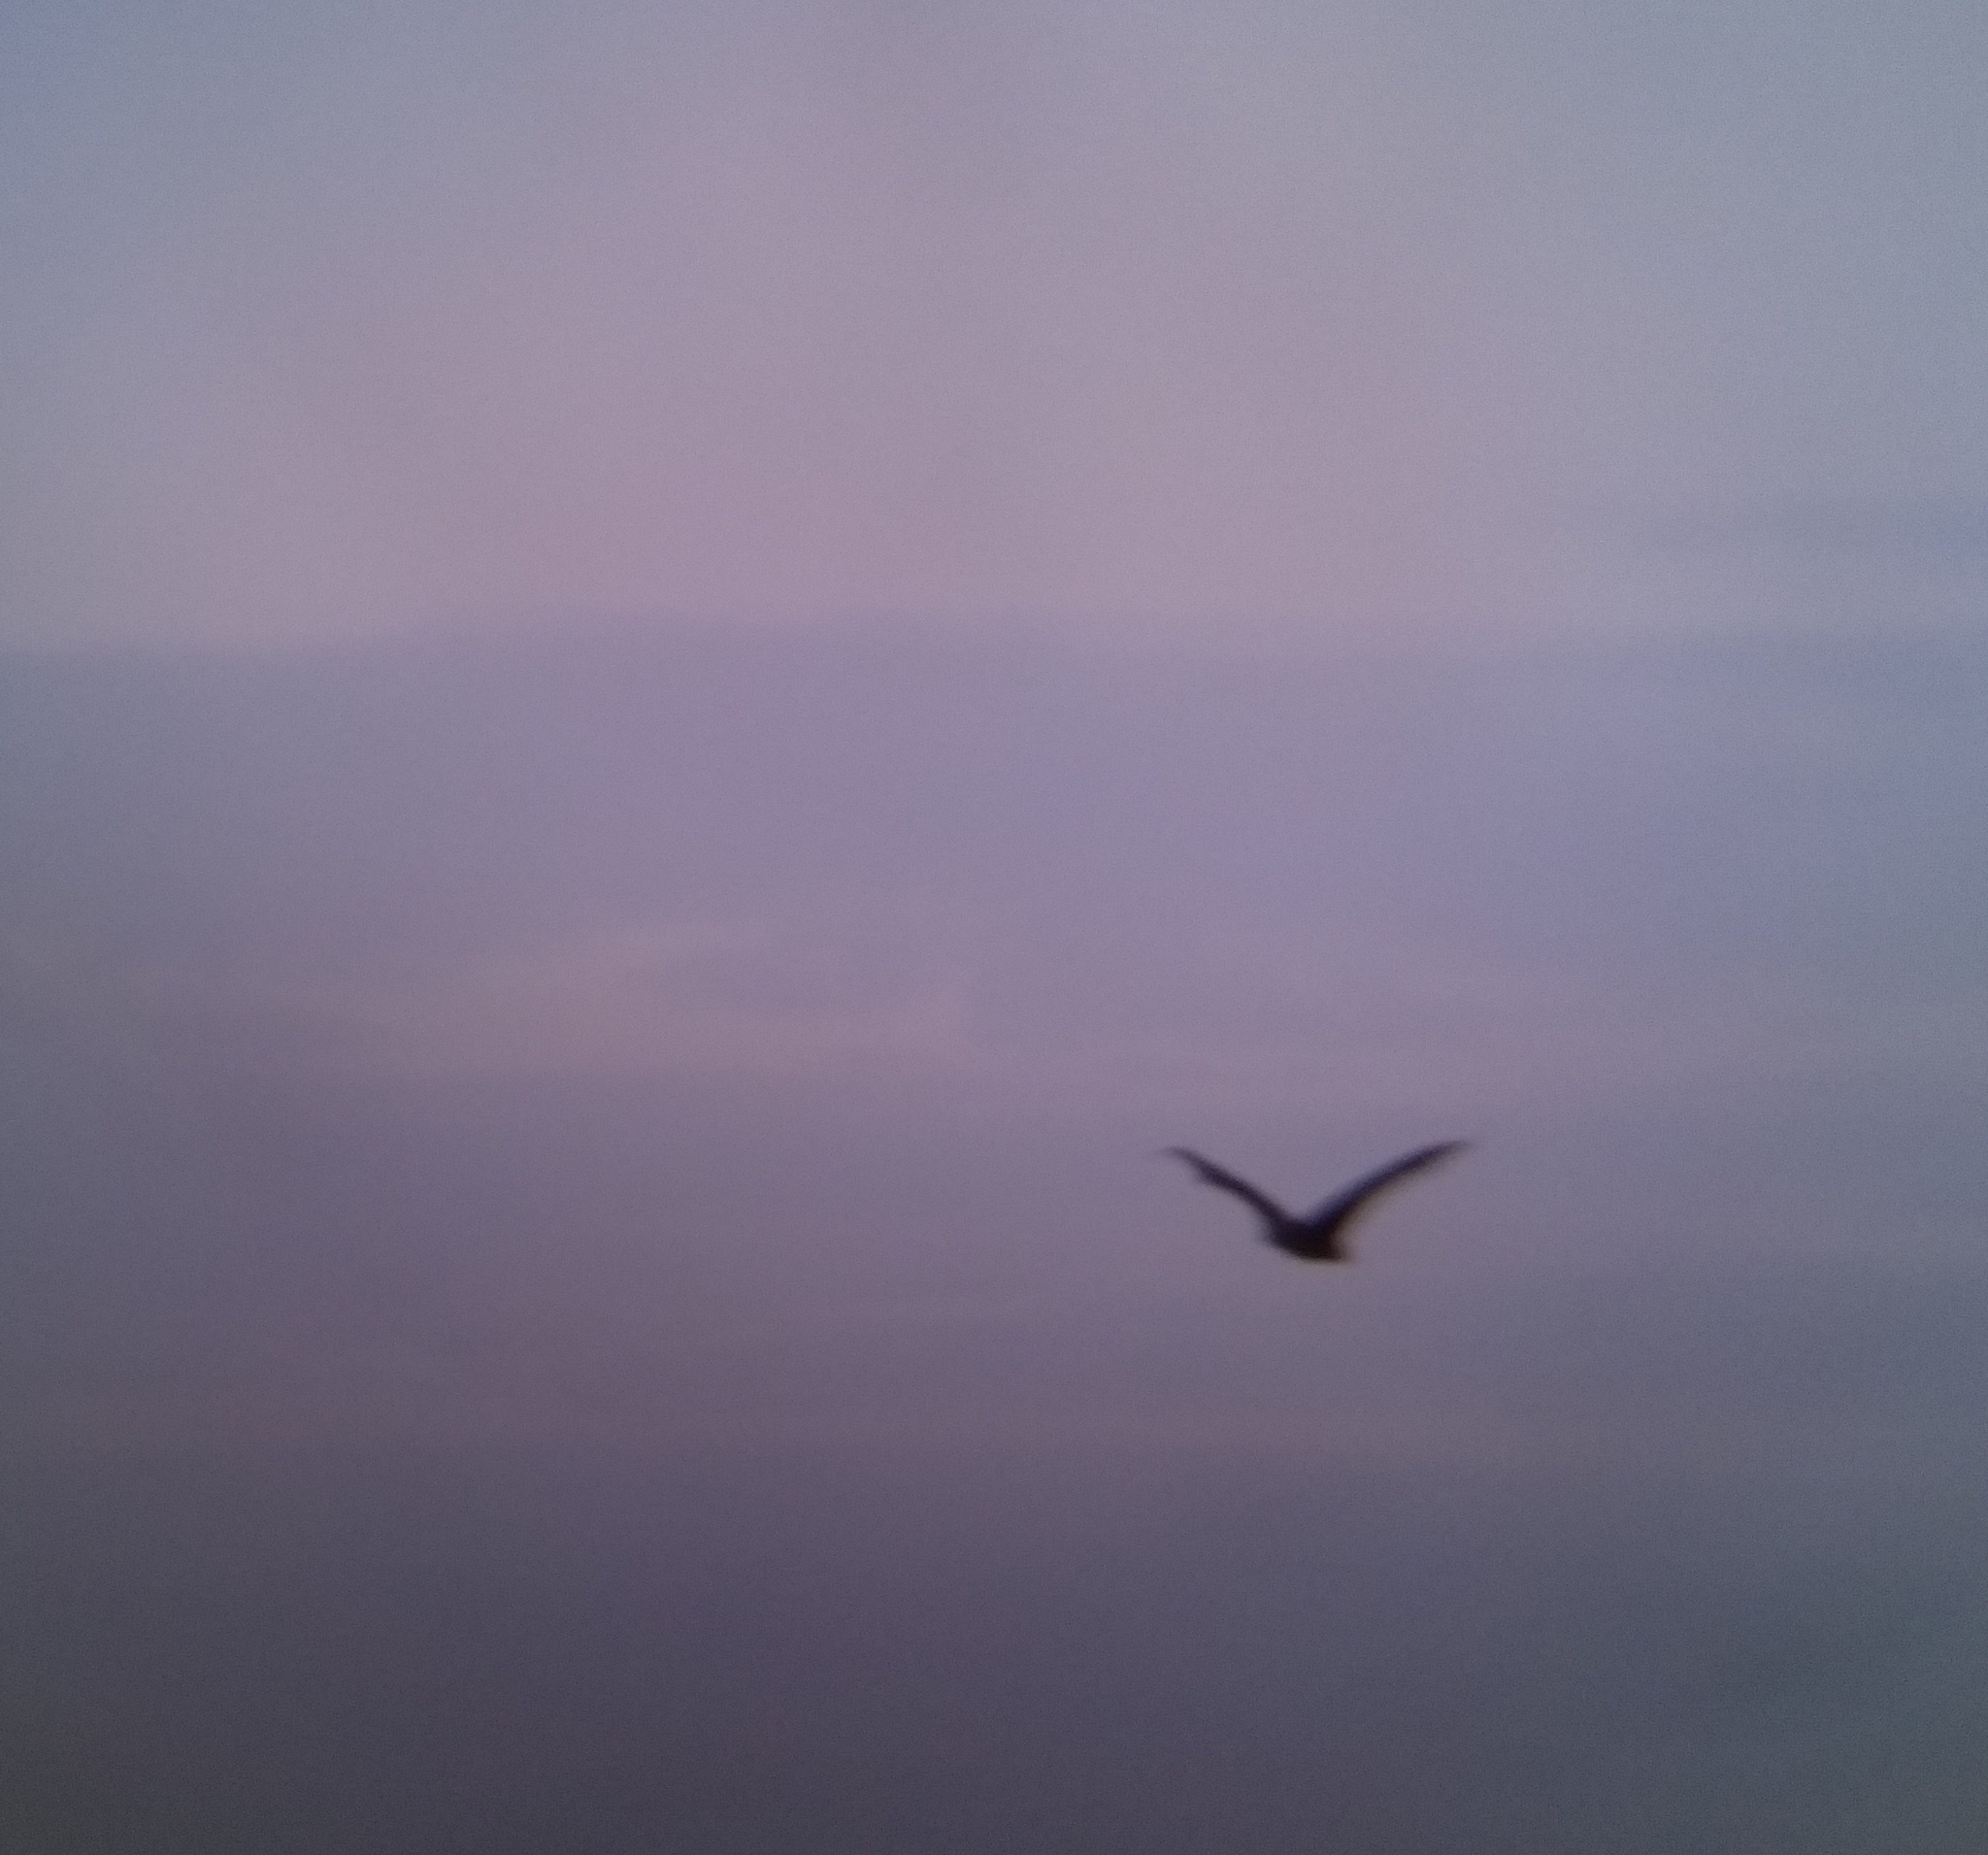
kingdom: Animalia
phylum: Chordata
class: Mammalia
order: Chiroptera
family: Pteropodidae
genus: Pteropus
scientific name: Pteropus vampyrus
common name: Large flying fox
